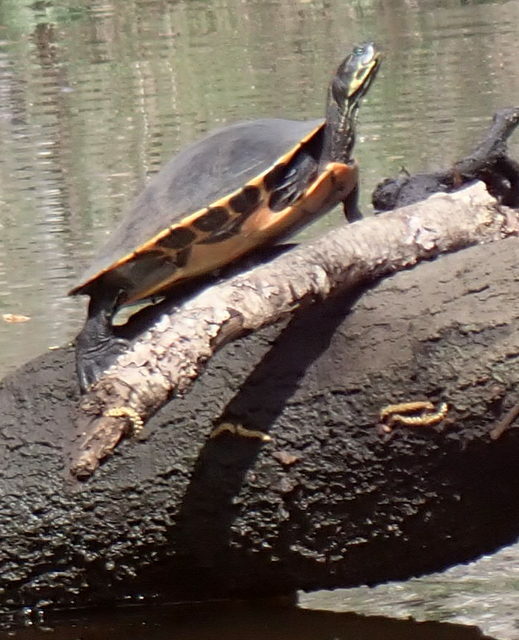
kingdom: Animalia
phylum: Chordata
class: Testudines
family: Emydidae
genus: Pseudemys
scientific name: Pseudemys concinna
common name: Eastern river cooter
